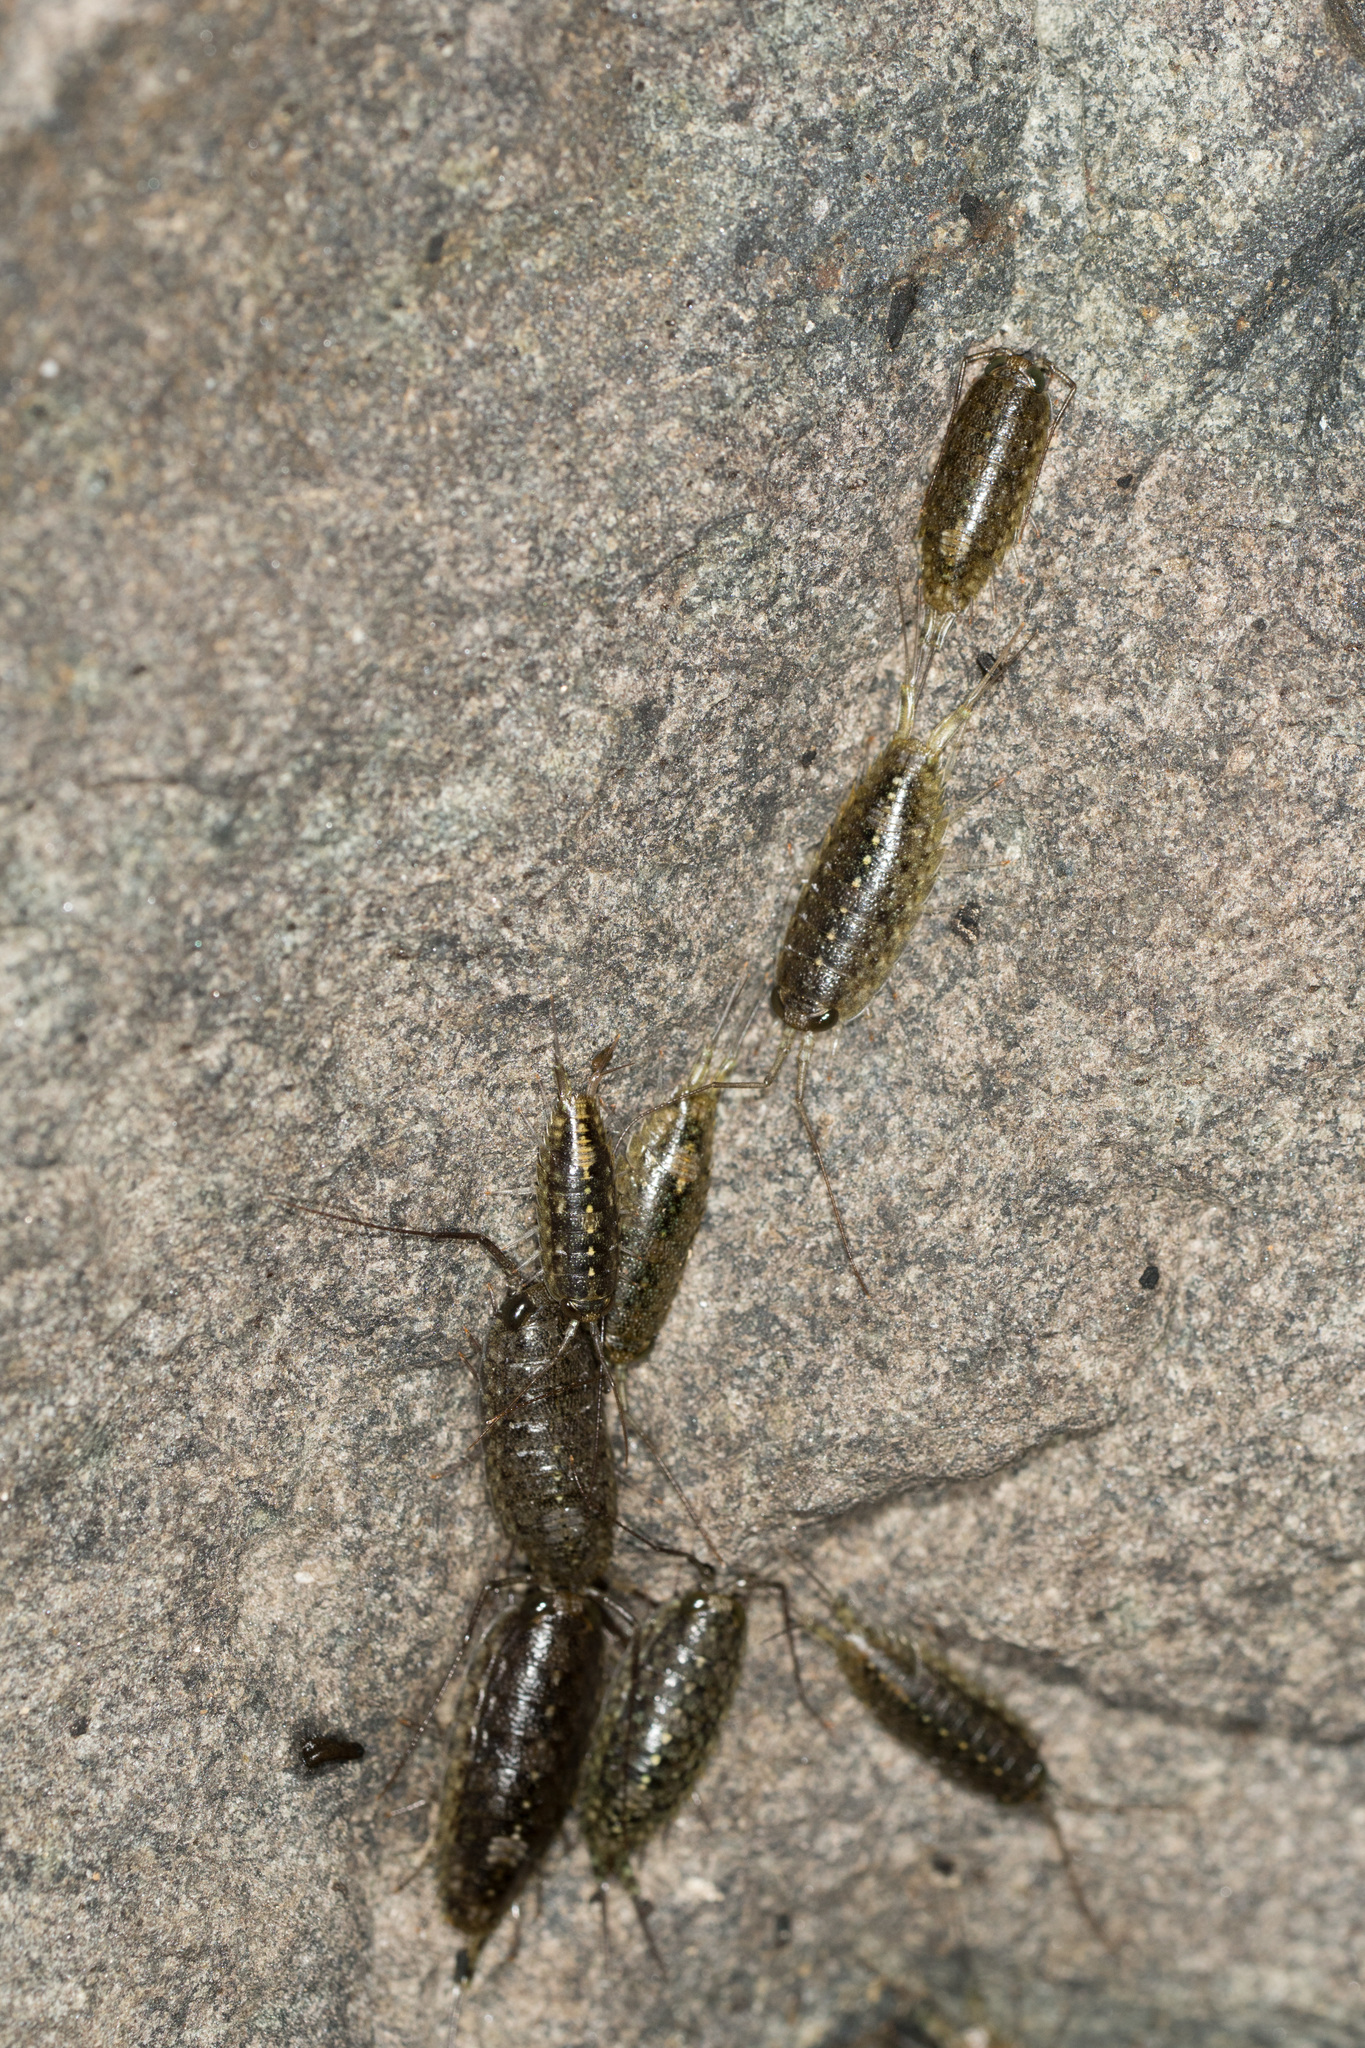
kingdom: Animalia
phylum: Arthropoda
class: Malacostraca
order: Isopoda
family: Ligiidae
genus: Ligia
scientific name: Ligia occidentalis
